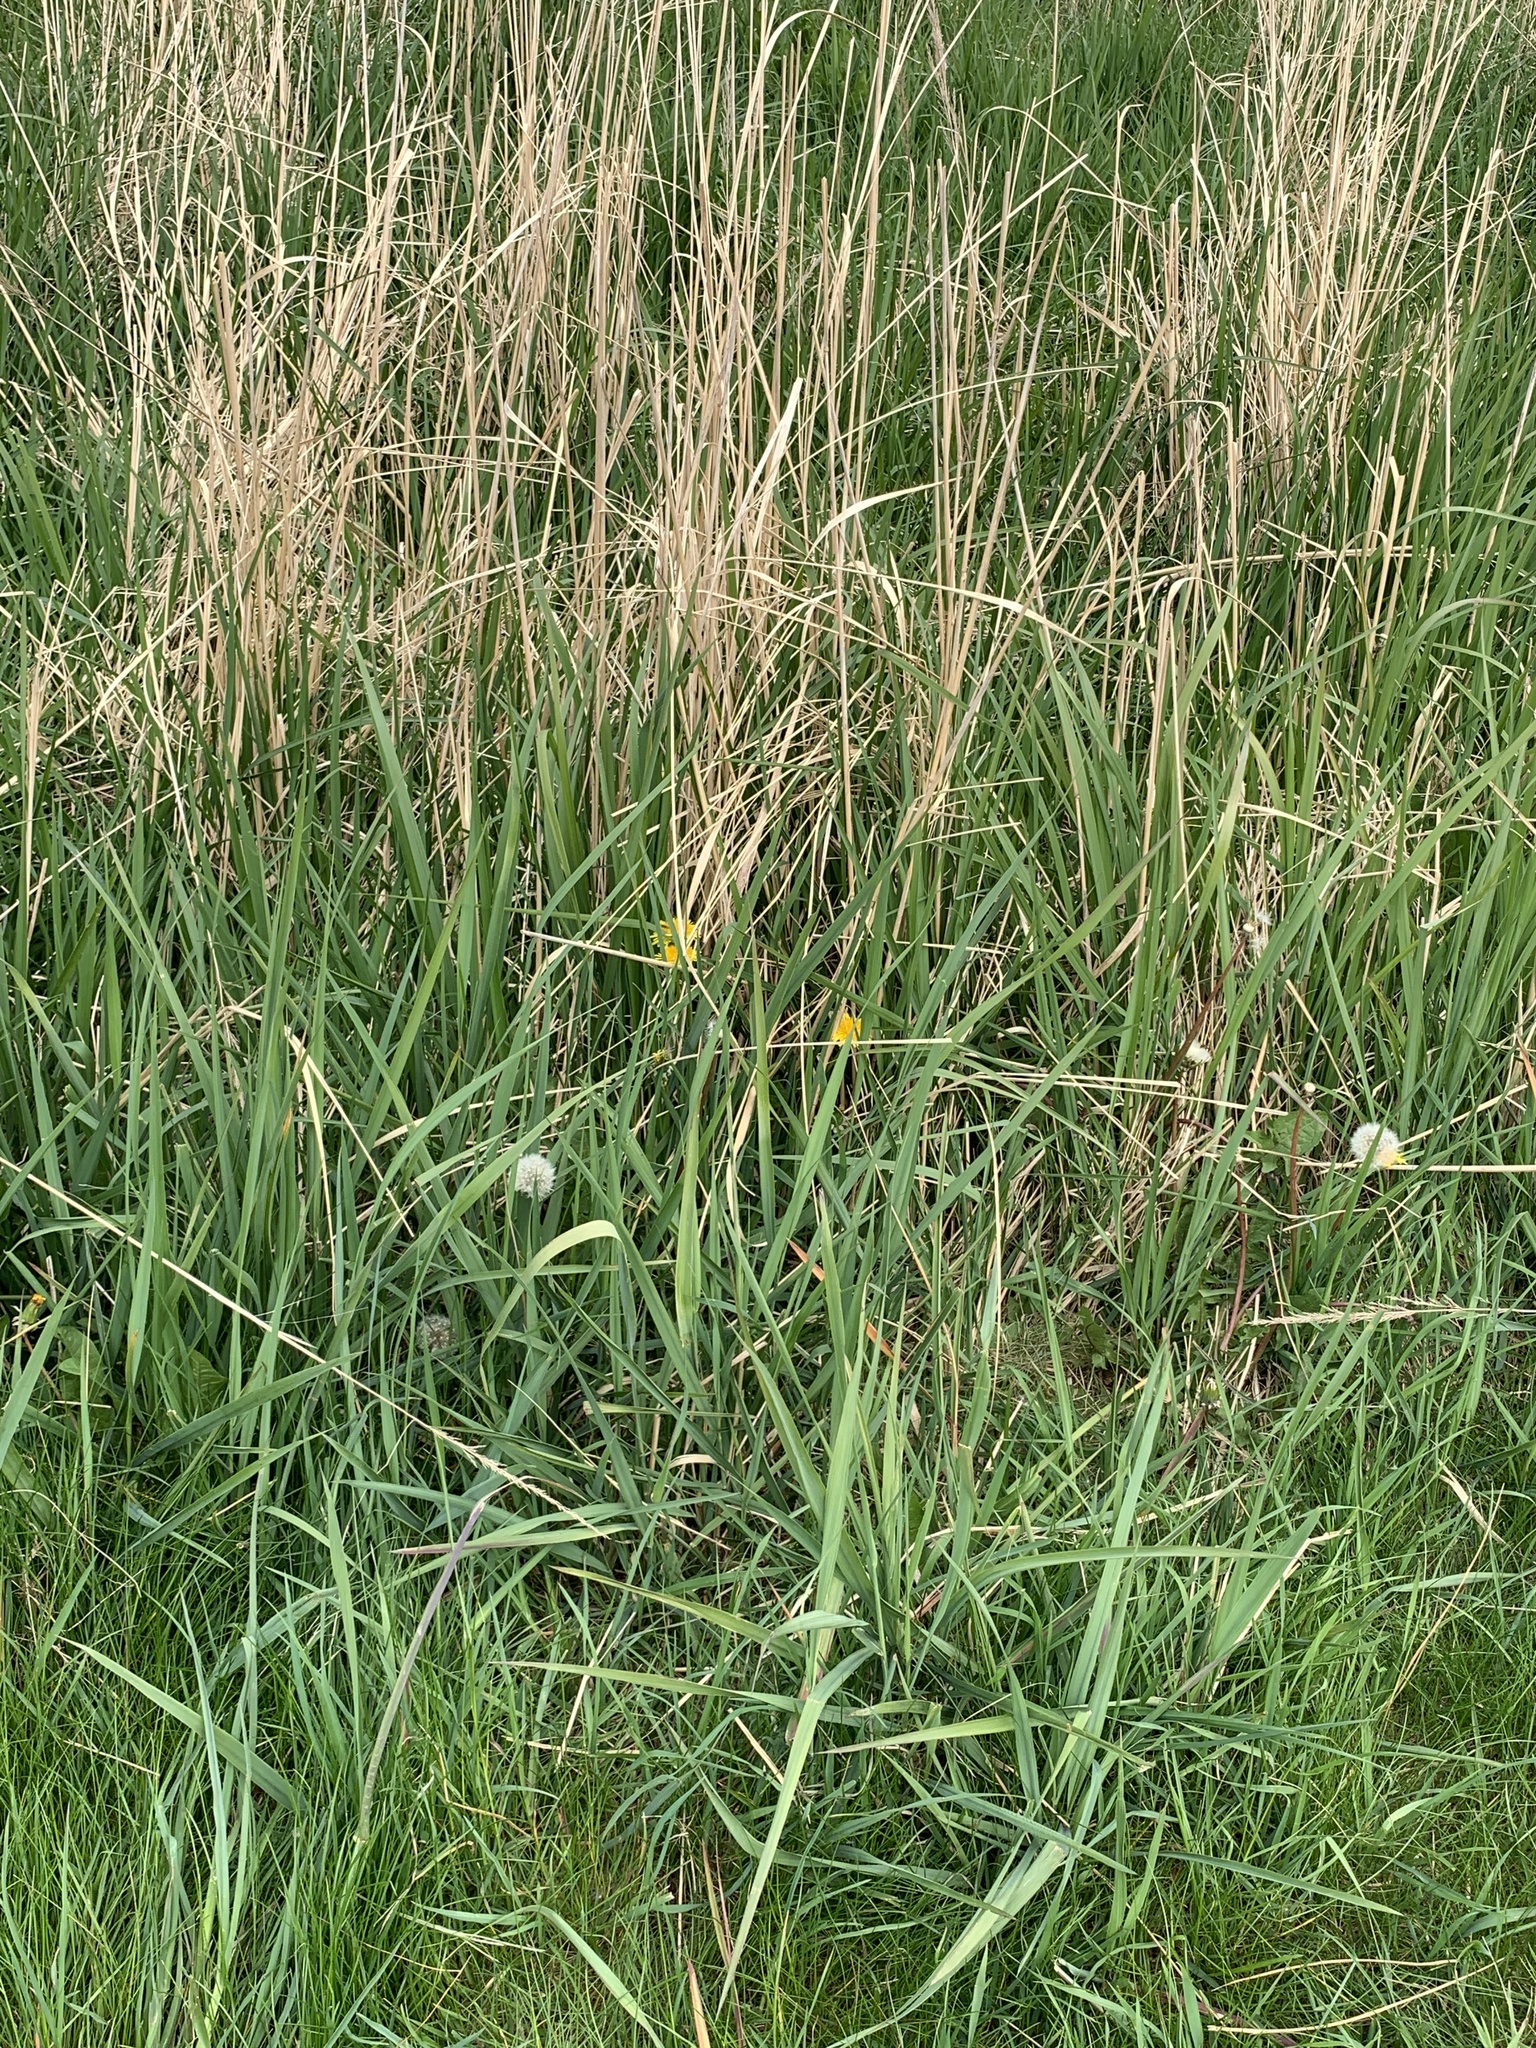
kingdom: Plantae
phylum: Tracheophyta
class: Liliopsida
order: Poales
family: Poaceae
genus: Phalaris
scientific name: Phalaris arundinacea
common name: Reed canary-grass
